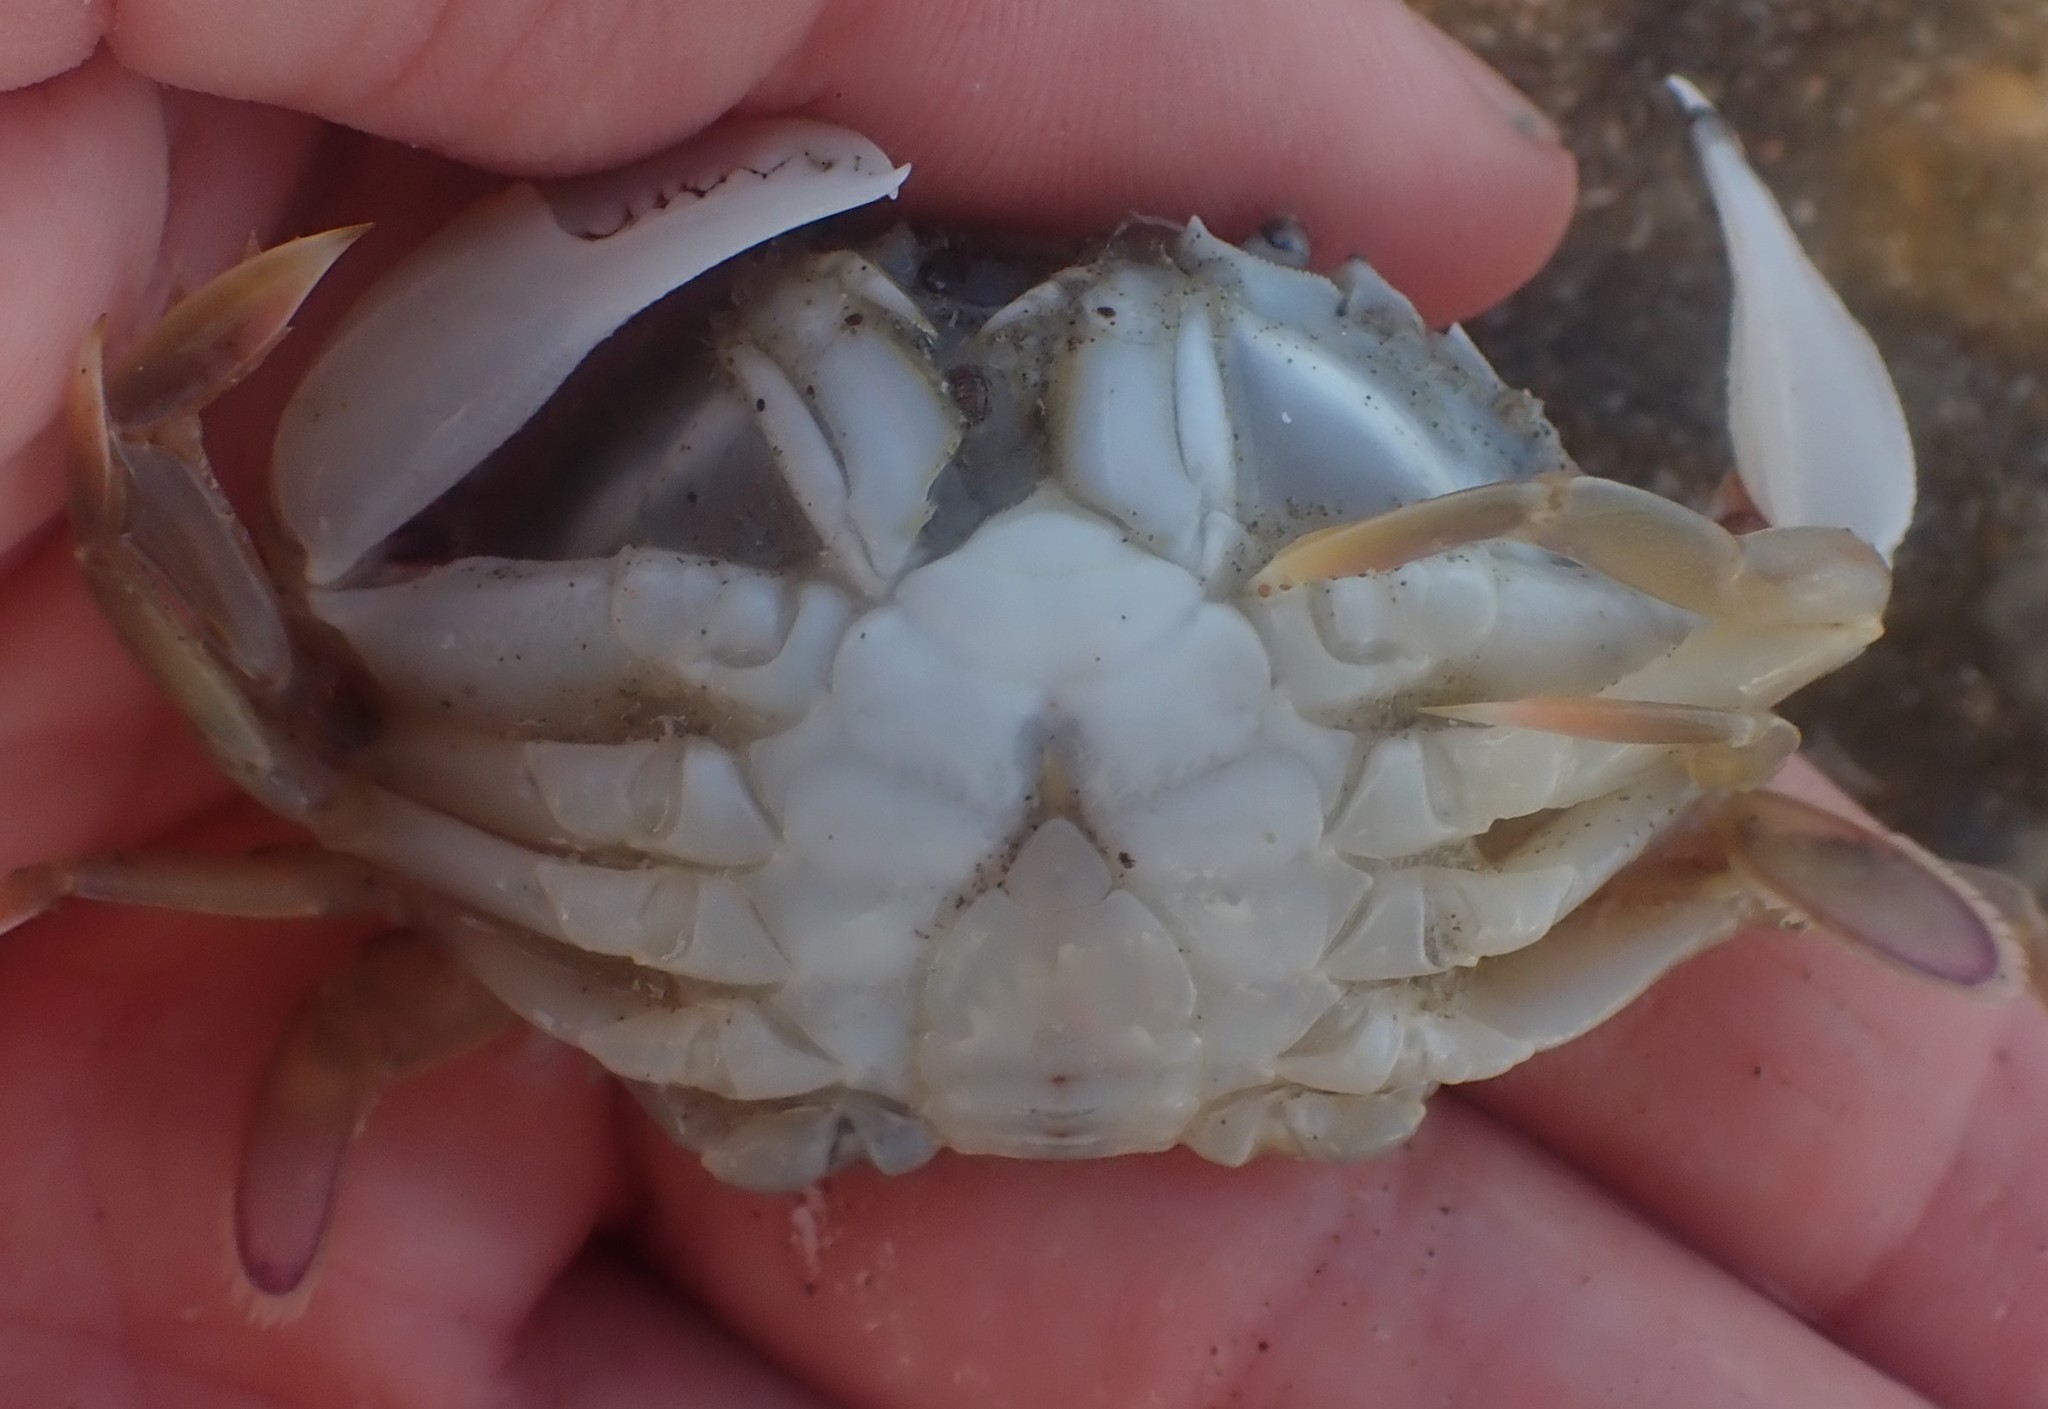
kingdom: Animalia
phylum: Arthropoda
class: Malacostraca
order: Decapoda
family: Ovalipidae
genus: Ovalipes
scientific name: Ovalipes catharus
